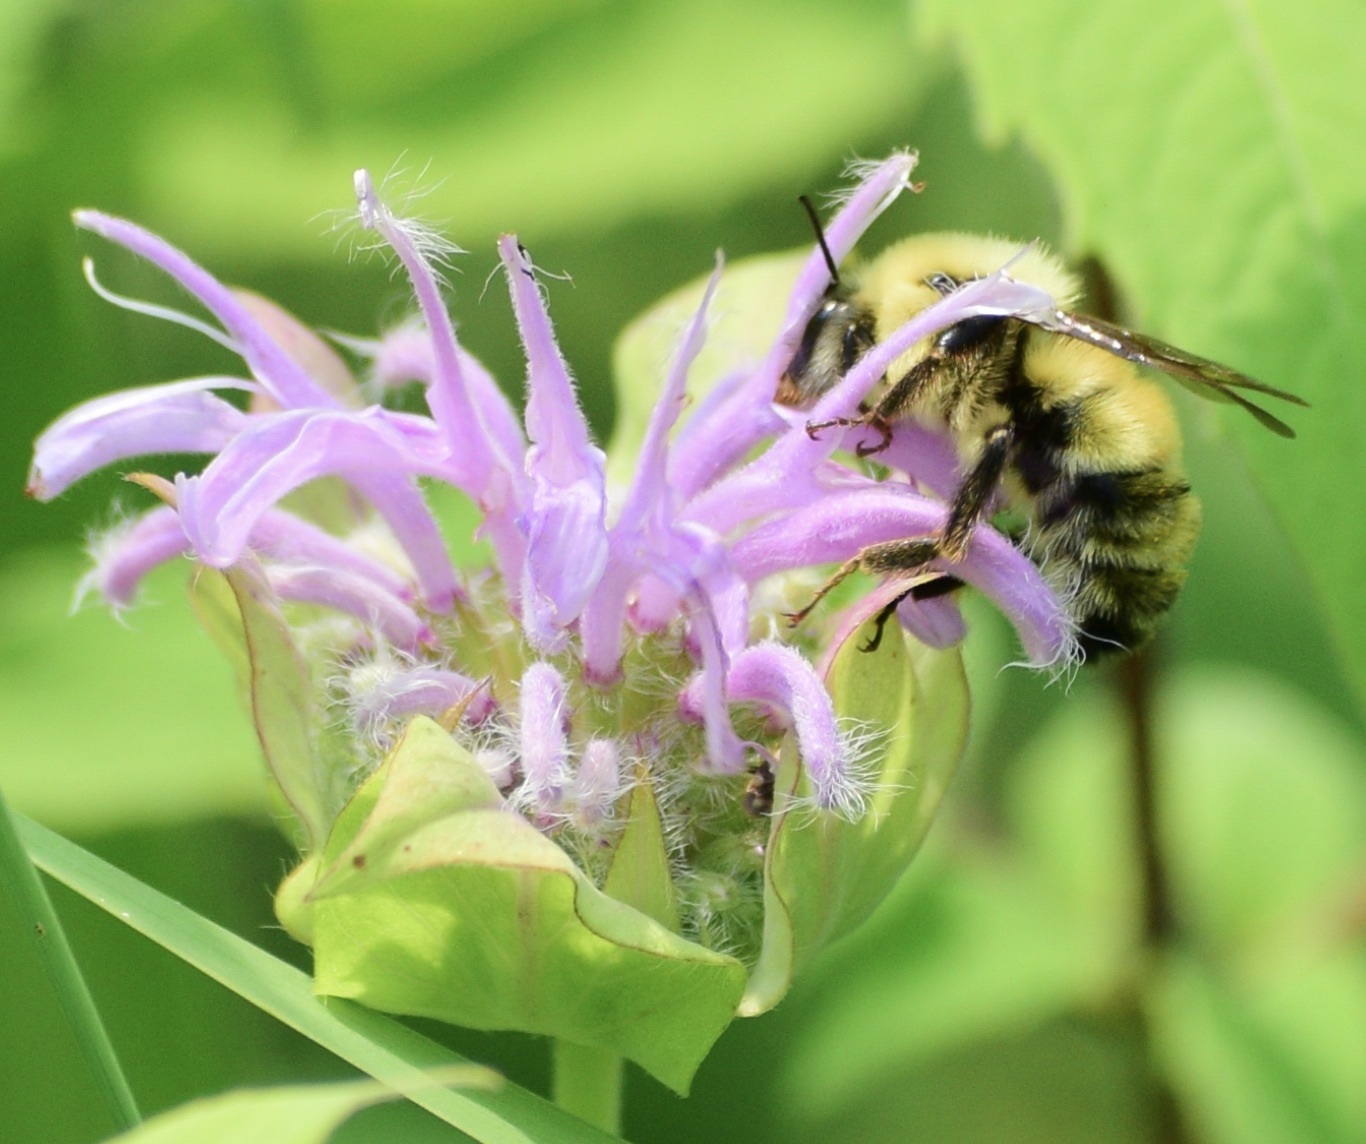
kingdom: Animalia
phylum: Arthropoda
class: Insecta
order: Hymenoptera
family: Apidae
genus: Bombus
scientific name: Bombus bimaculatus
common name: Two-spotted bumble bee
